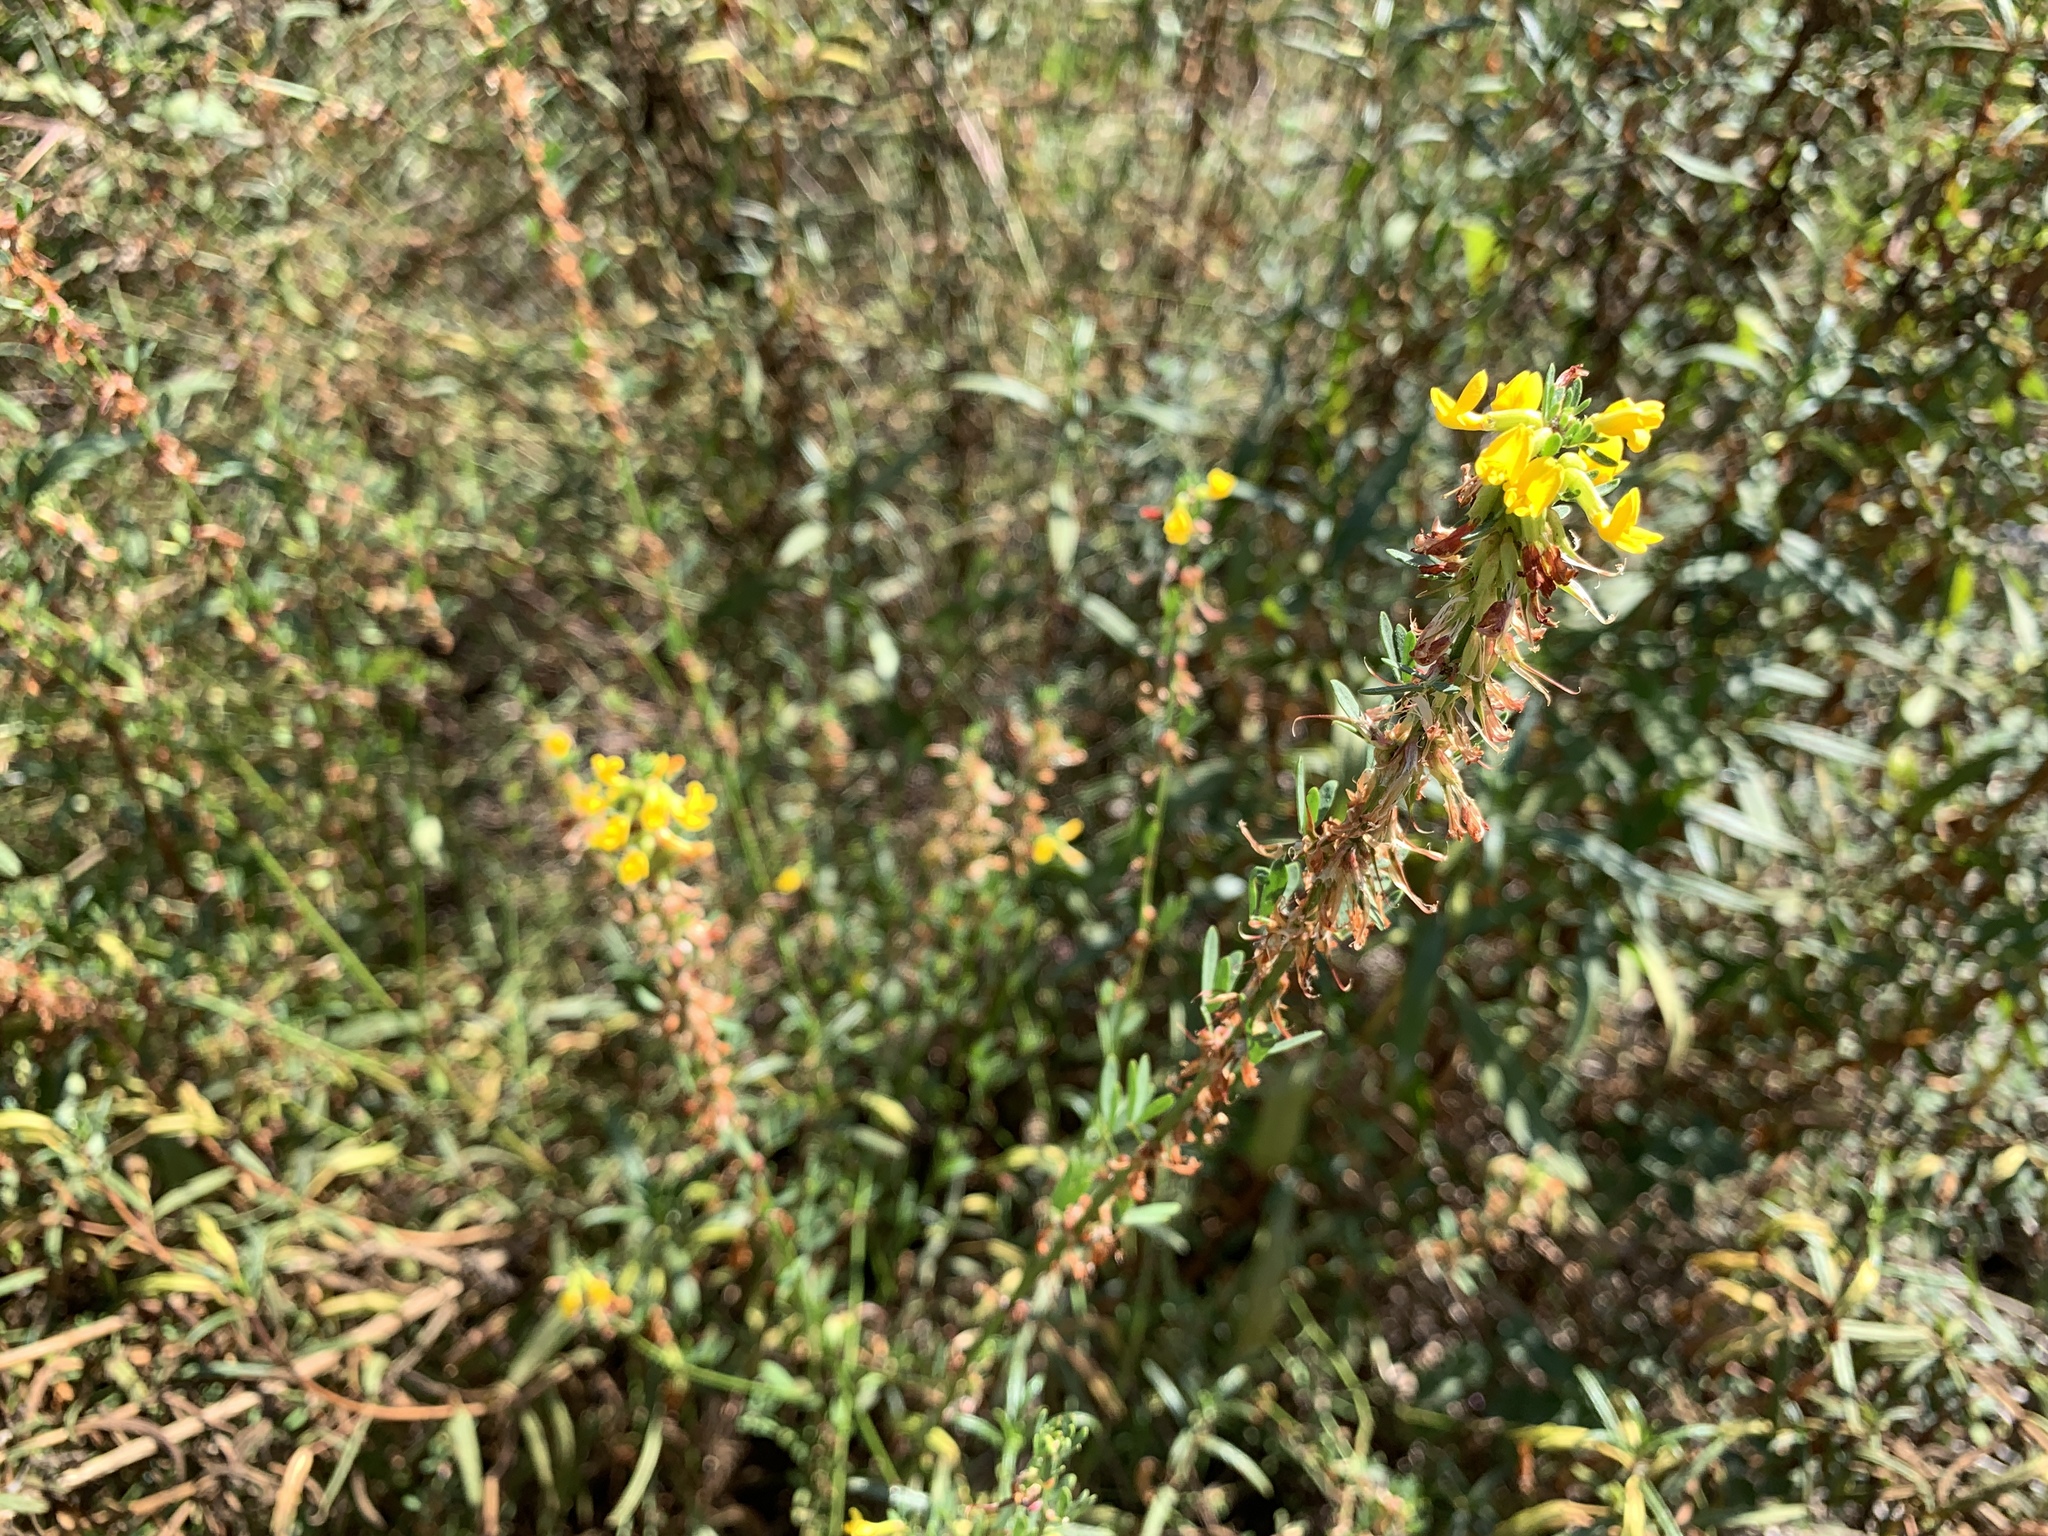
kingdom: Plantae
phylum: Tracheophyta
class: Magnoliopsida
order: Fabales
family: Fabaceae
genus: Acmispon
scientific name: Acmispon glaber
